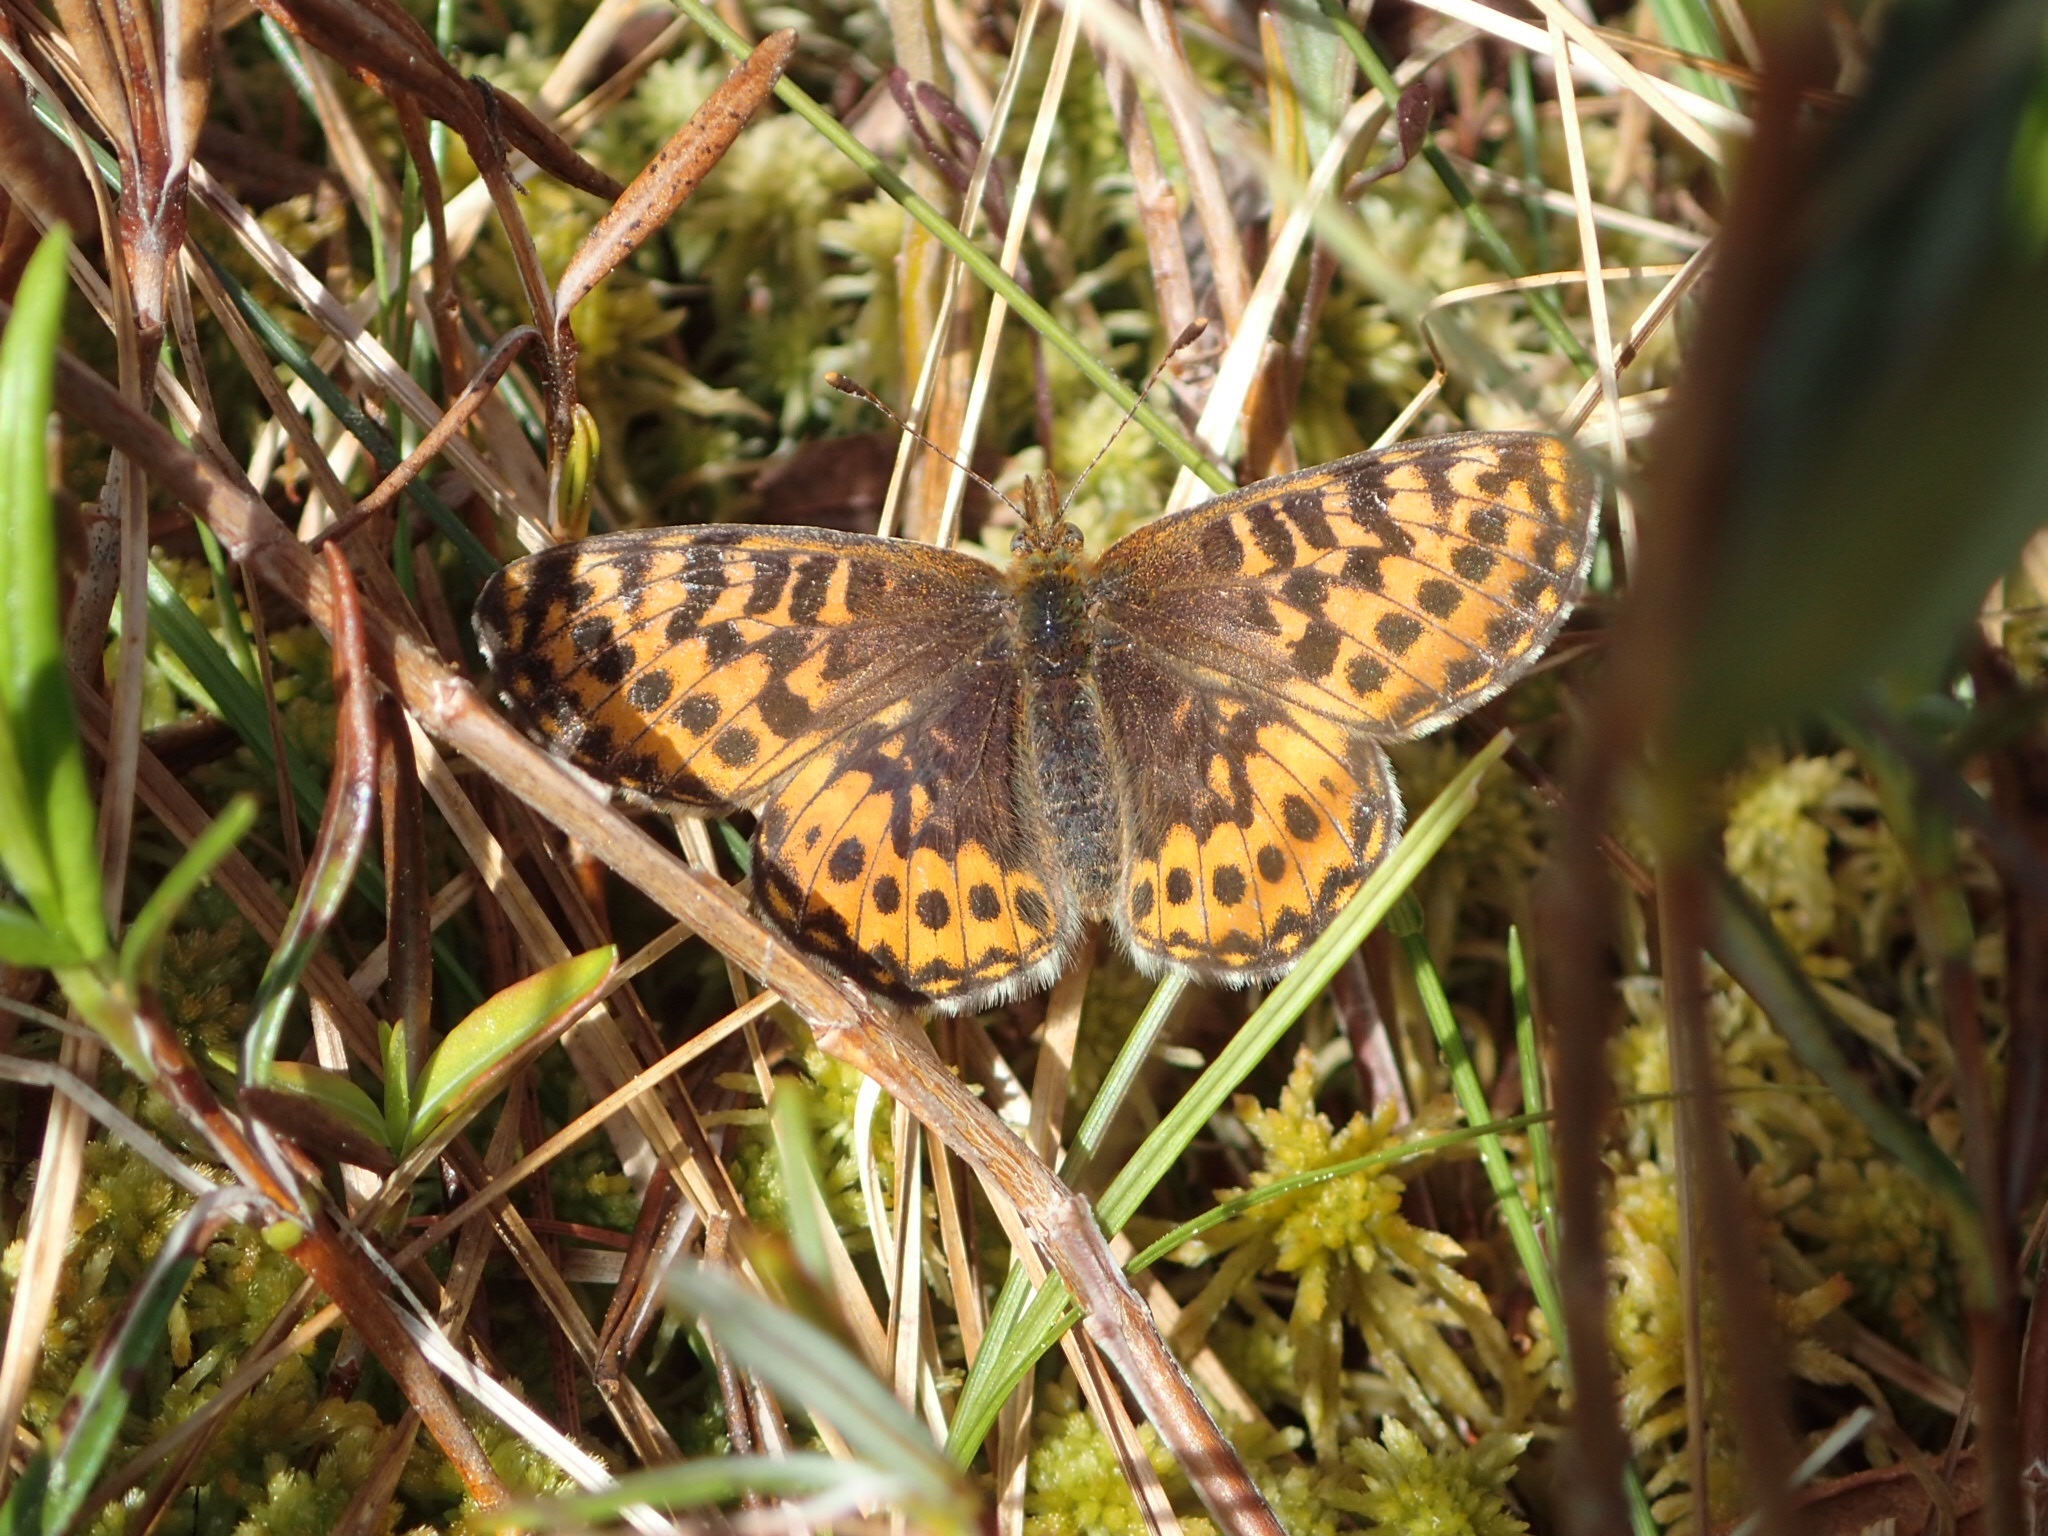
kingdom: Animalia
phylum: Arthropoda
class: Insecta
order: Lepidoptera
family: Nymphalidae
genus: Boloria
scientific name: Boloria freija
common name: Freija fritillary
